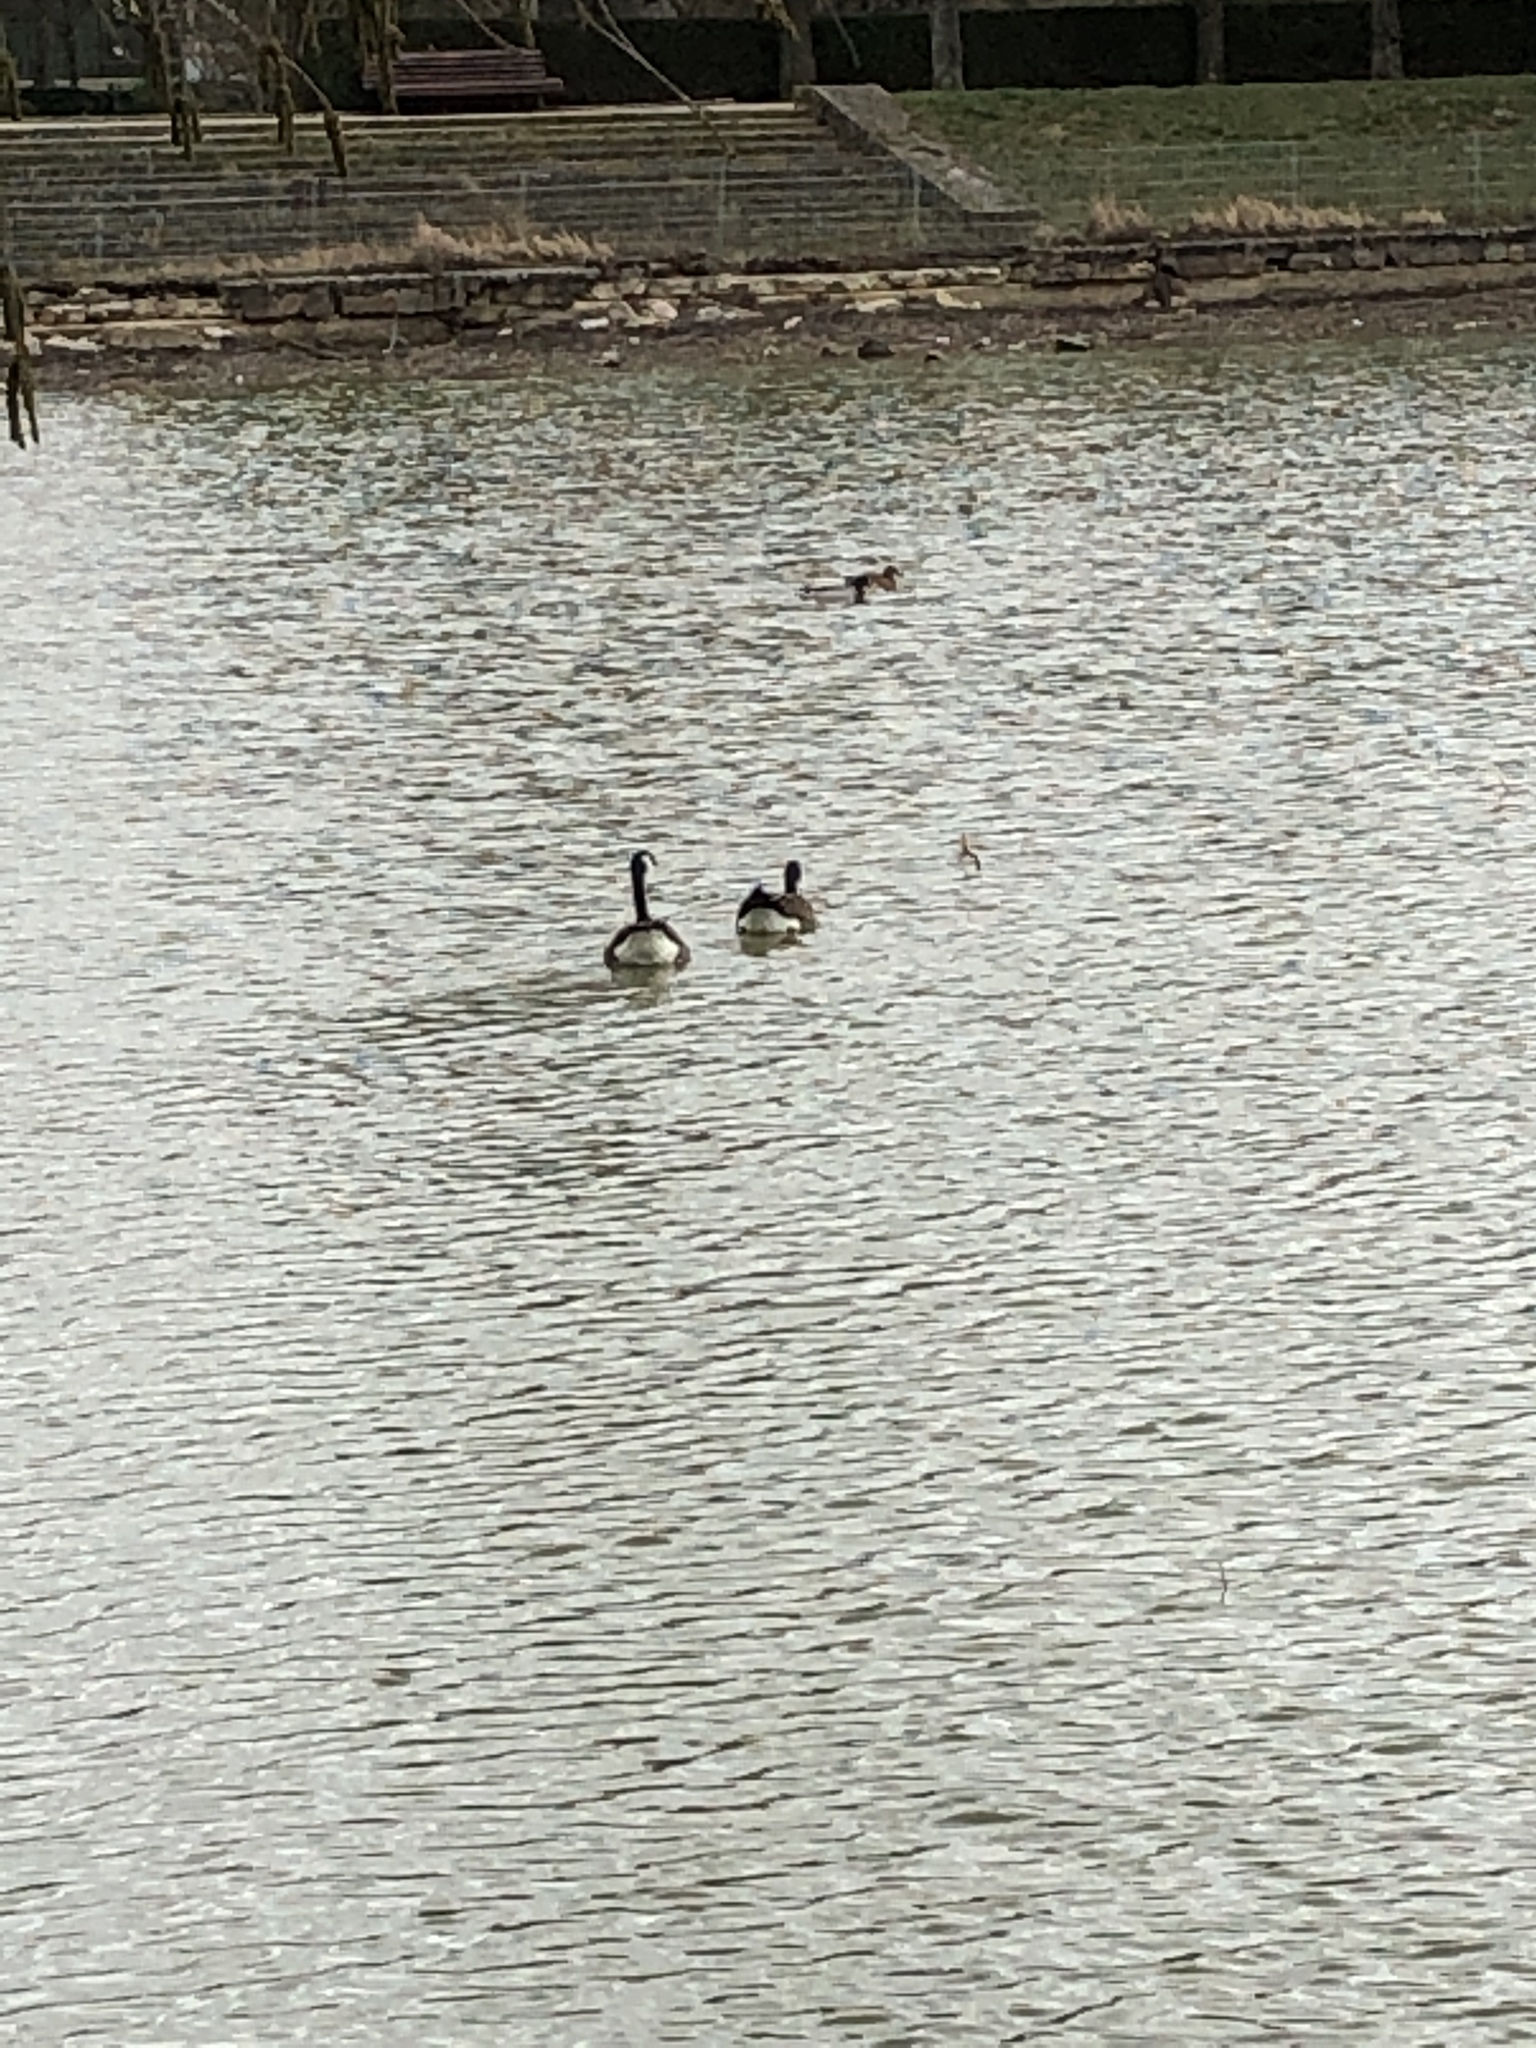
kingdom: Animalia
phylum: Chordata
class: Aves
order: Anseriformes
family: Anatidae
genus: Branta
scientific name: Branta canadensis
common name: Canada goose
